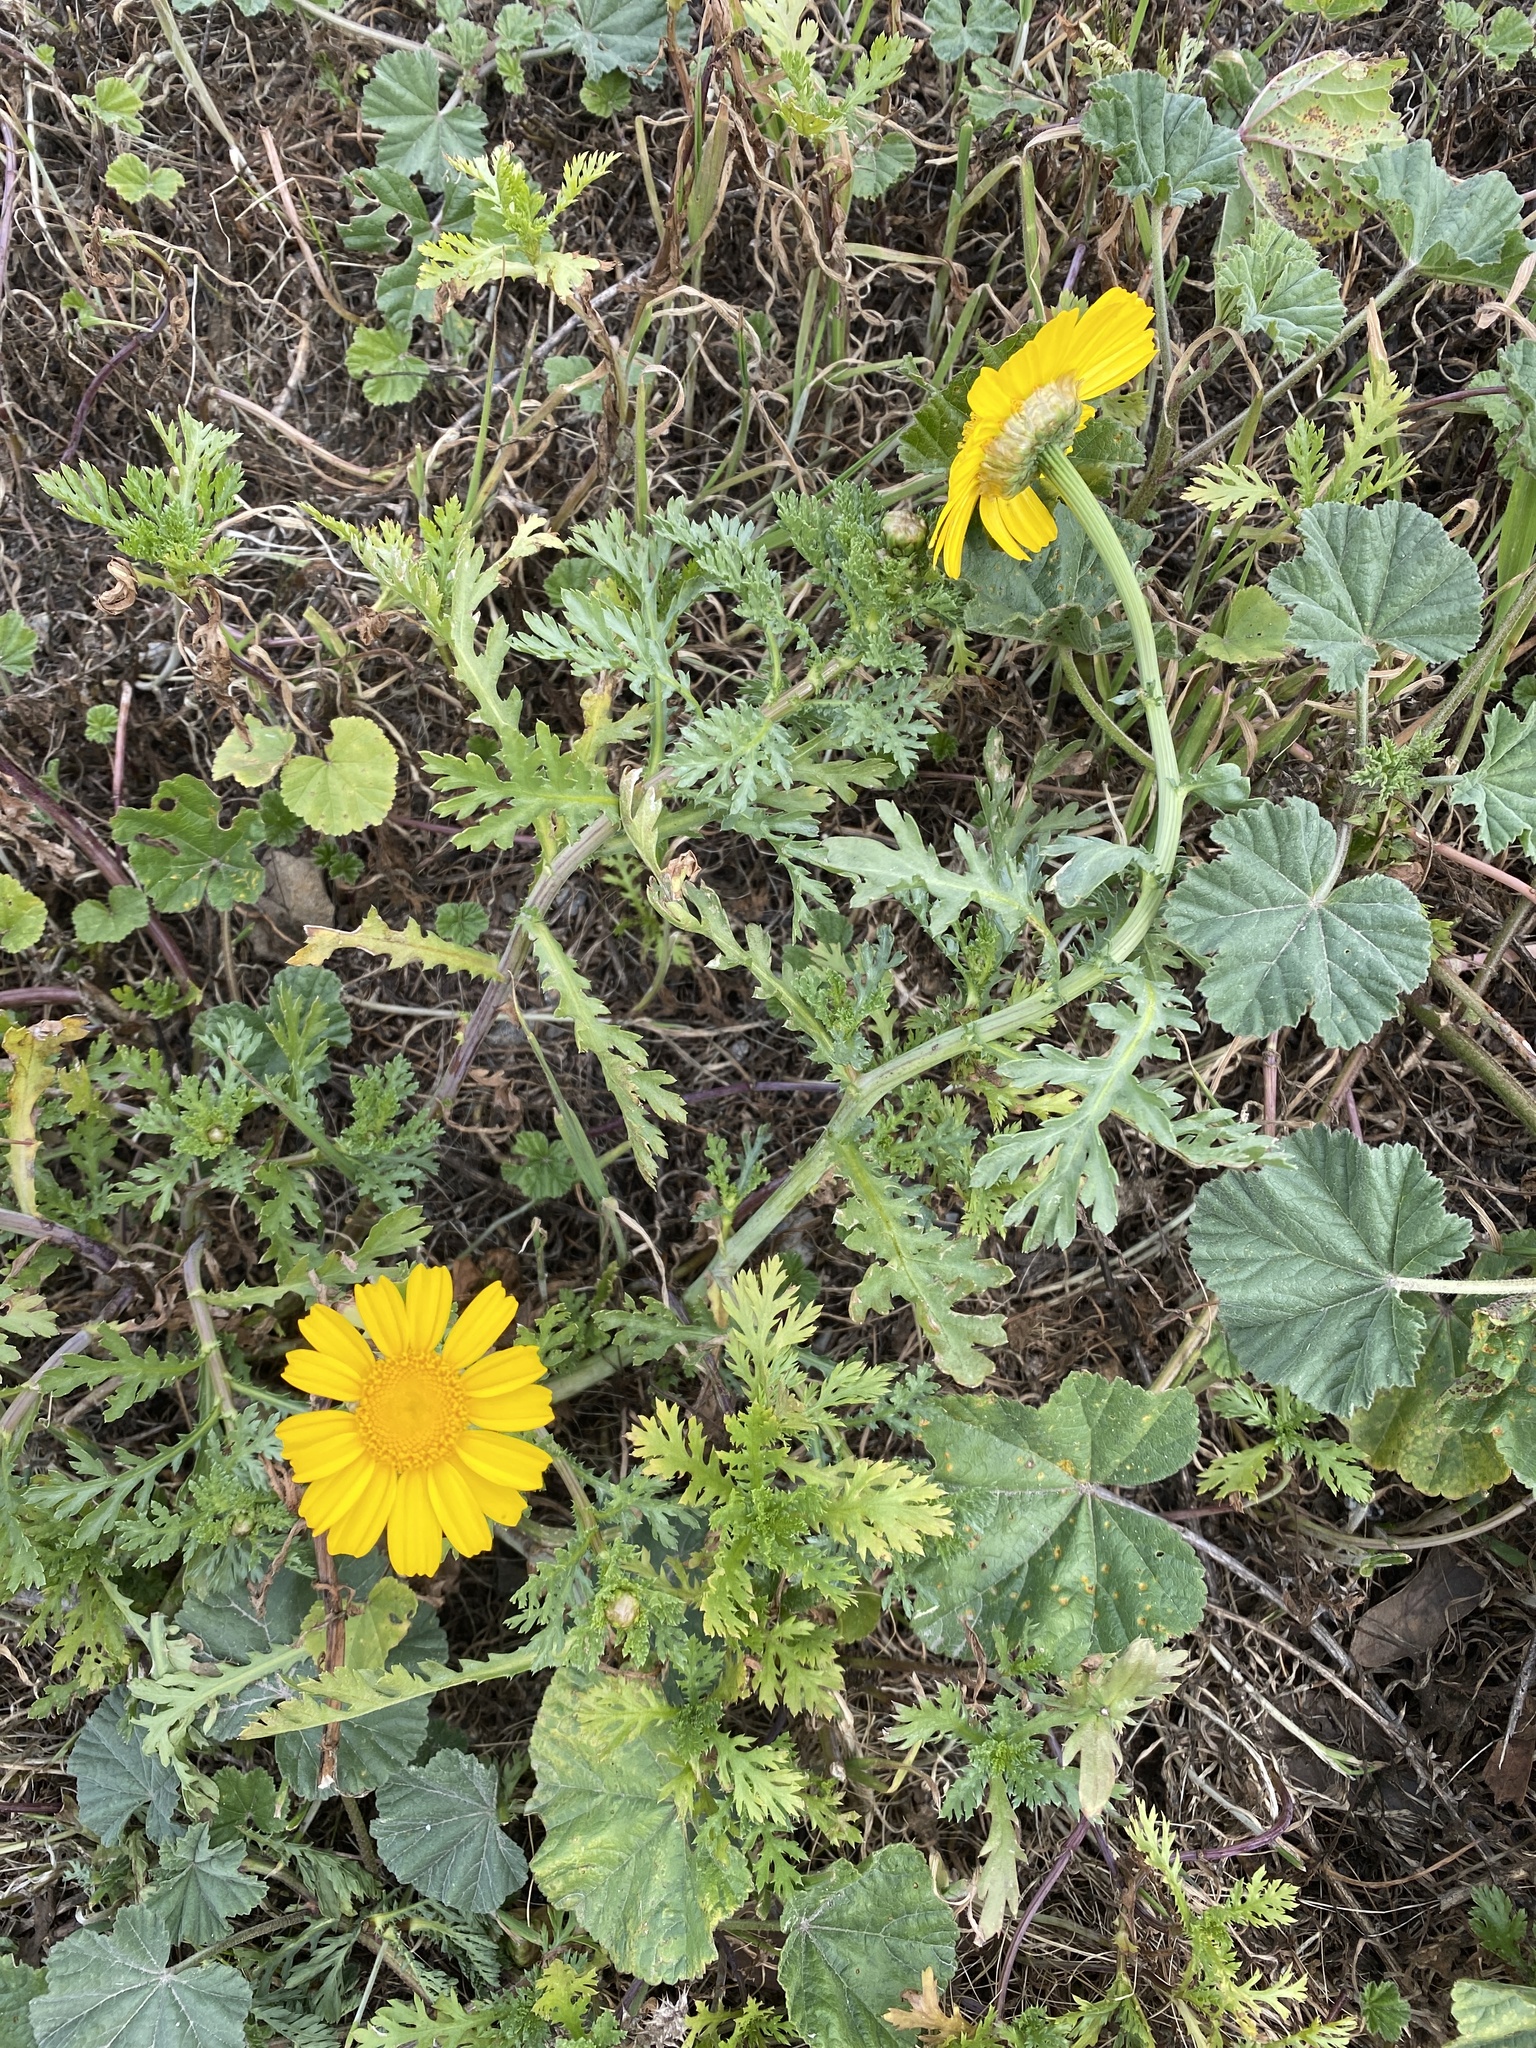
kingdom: Plantae
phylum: Tracheophyta
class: Magnoliopsida
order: Asterales
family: Asteraceae
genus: Glebionis
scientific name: Glebionis coronaria
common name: Crowndaisy
